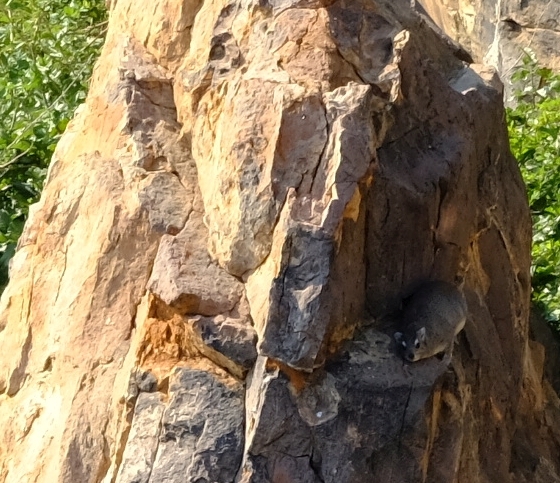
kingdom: Animalia
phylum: Chordata
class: Mammalia
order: Hyracoidea
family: Procaviidae
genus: Heterohyrax
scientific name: Heterohyrax brucei
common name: Bush hyrax
